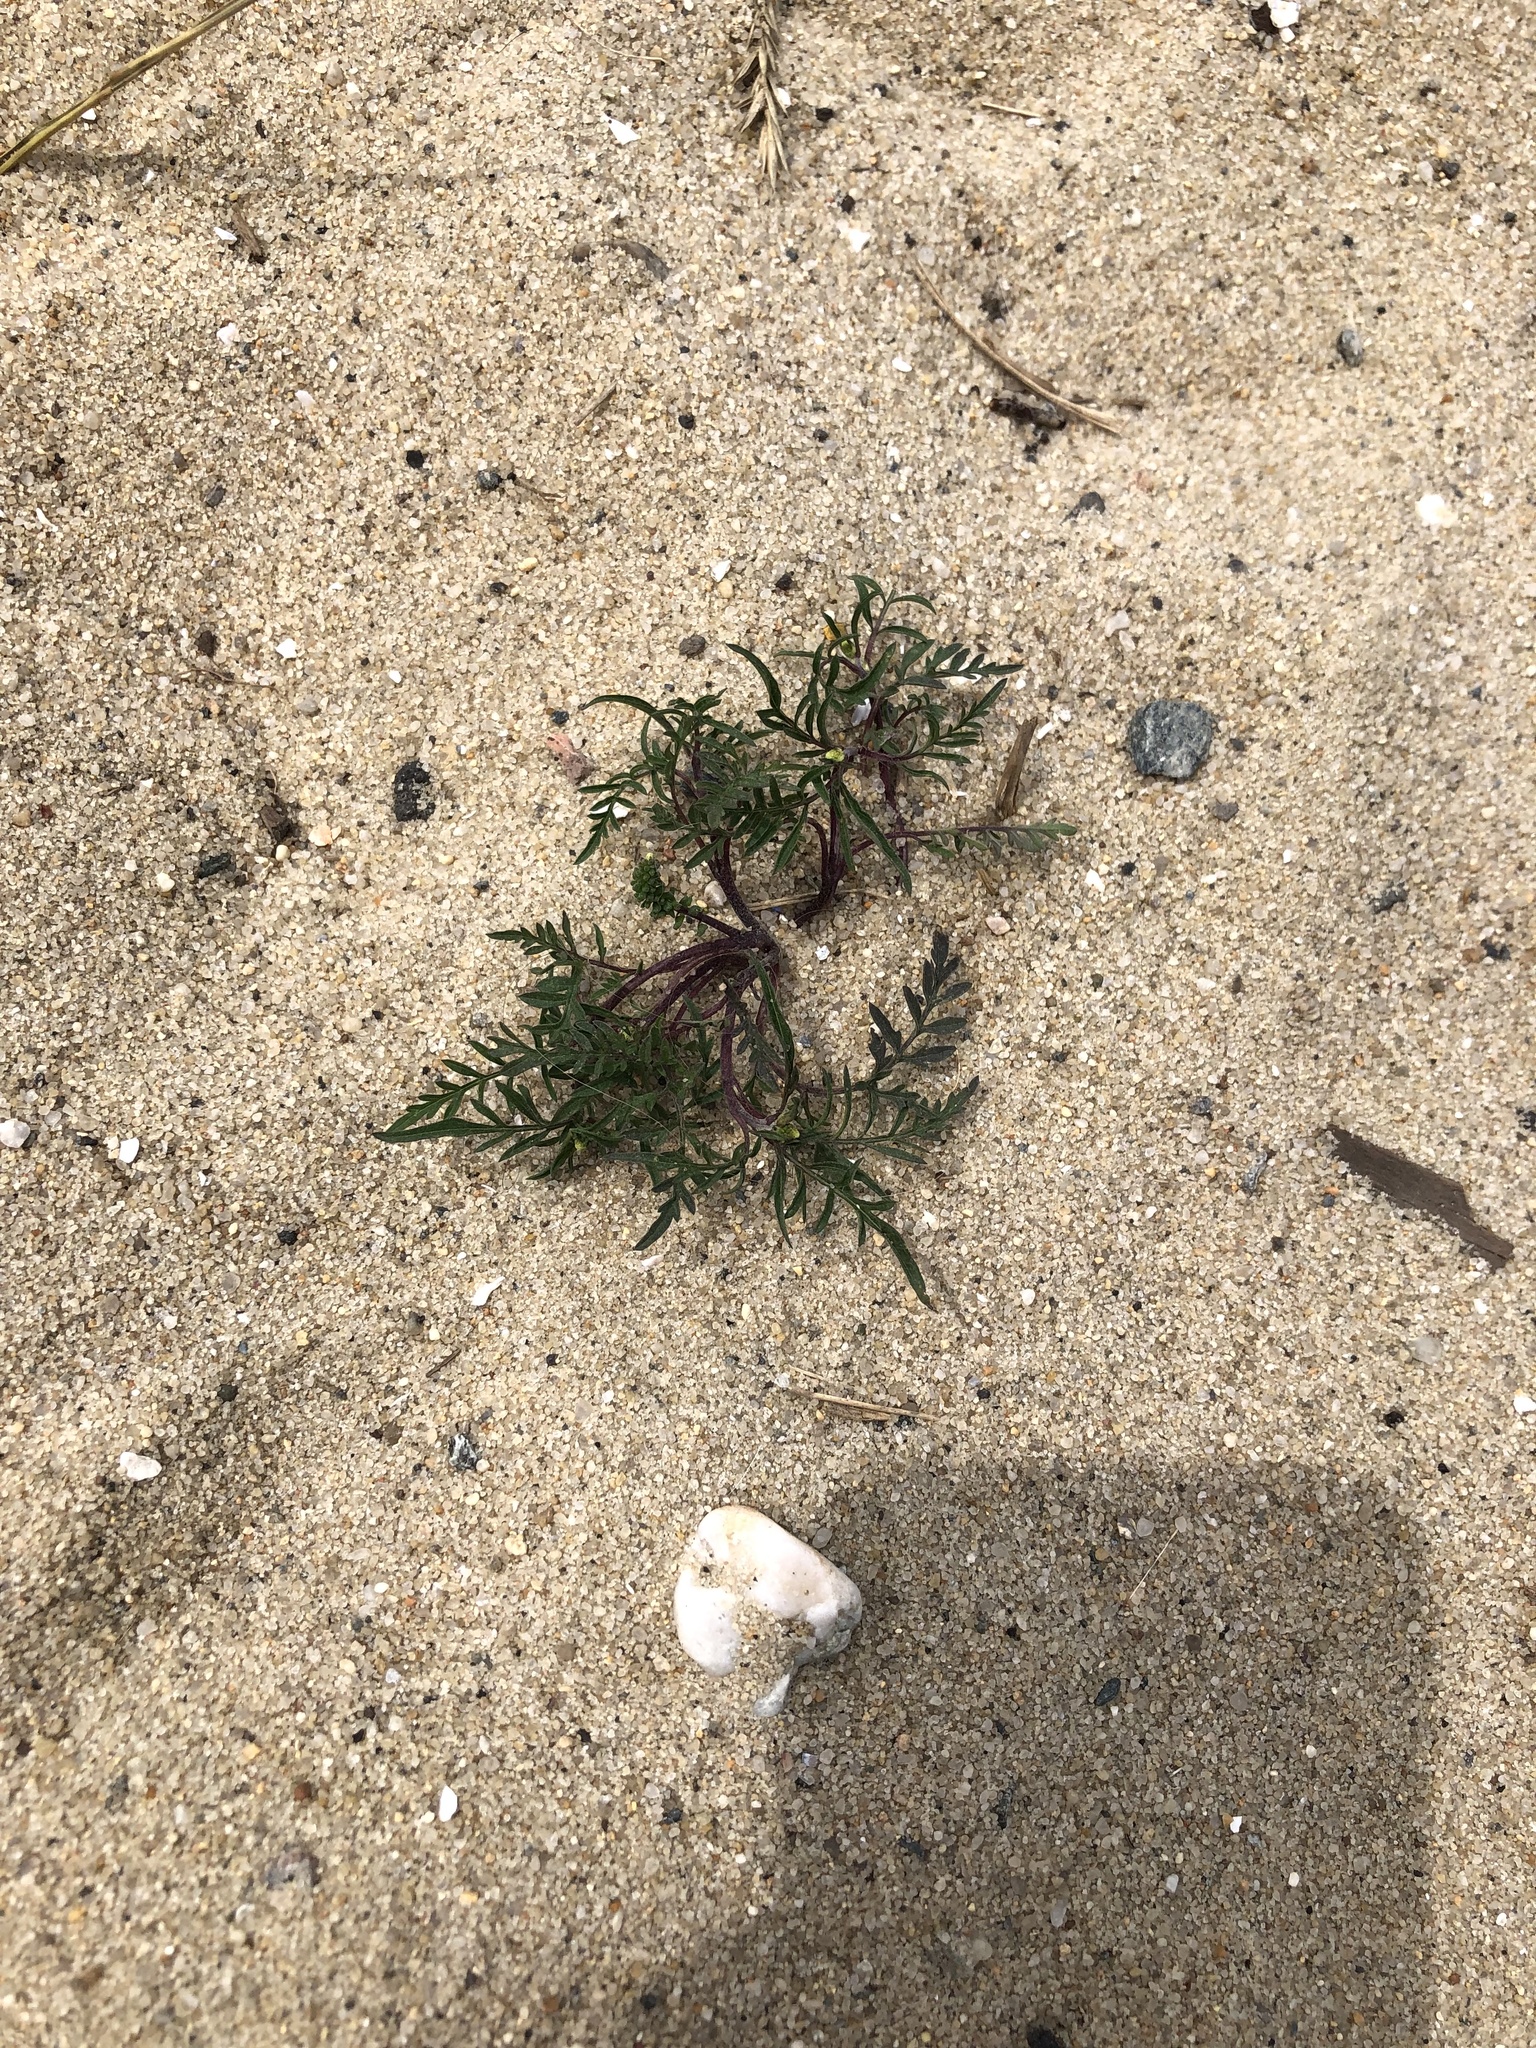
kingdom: Plantae
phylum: Tracheophyta
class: Magnoliopsida
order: Asterales
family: Asteraceae
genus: Ambrosia
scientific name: Ambrosia artemisiifolia
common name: Annual ragweed
